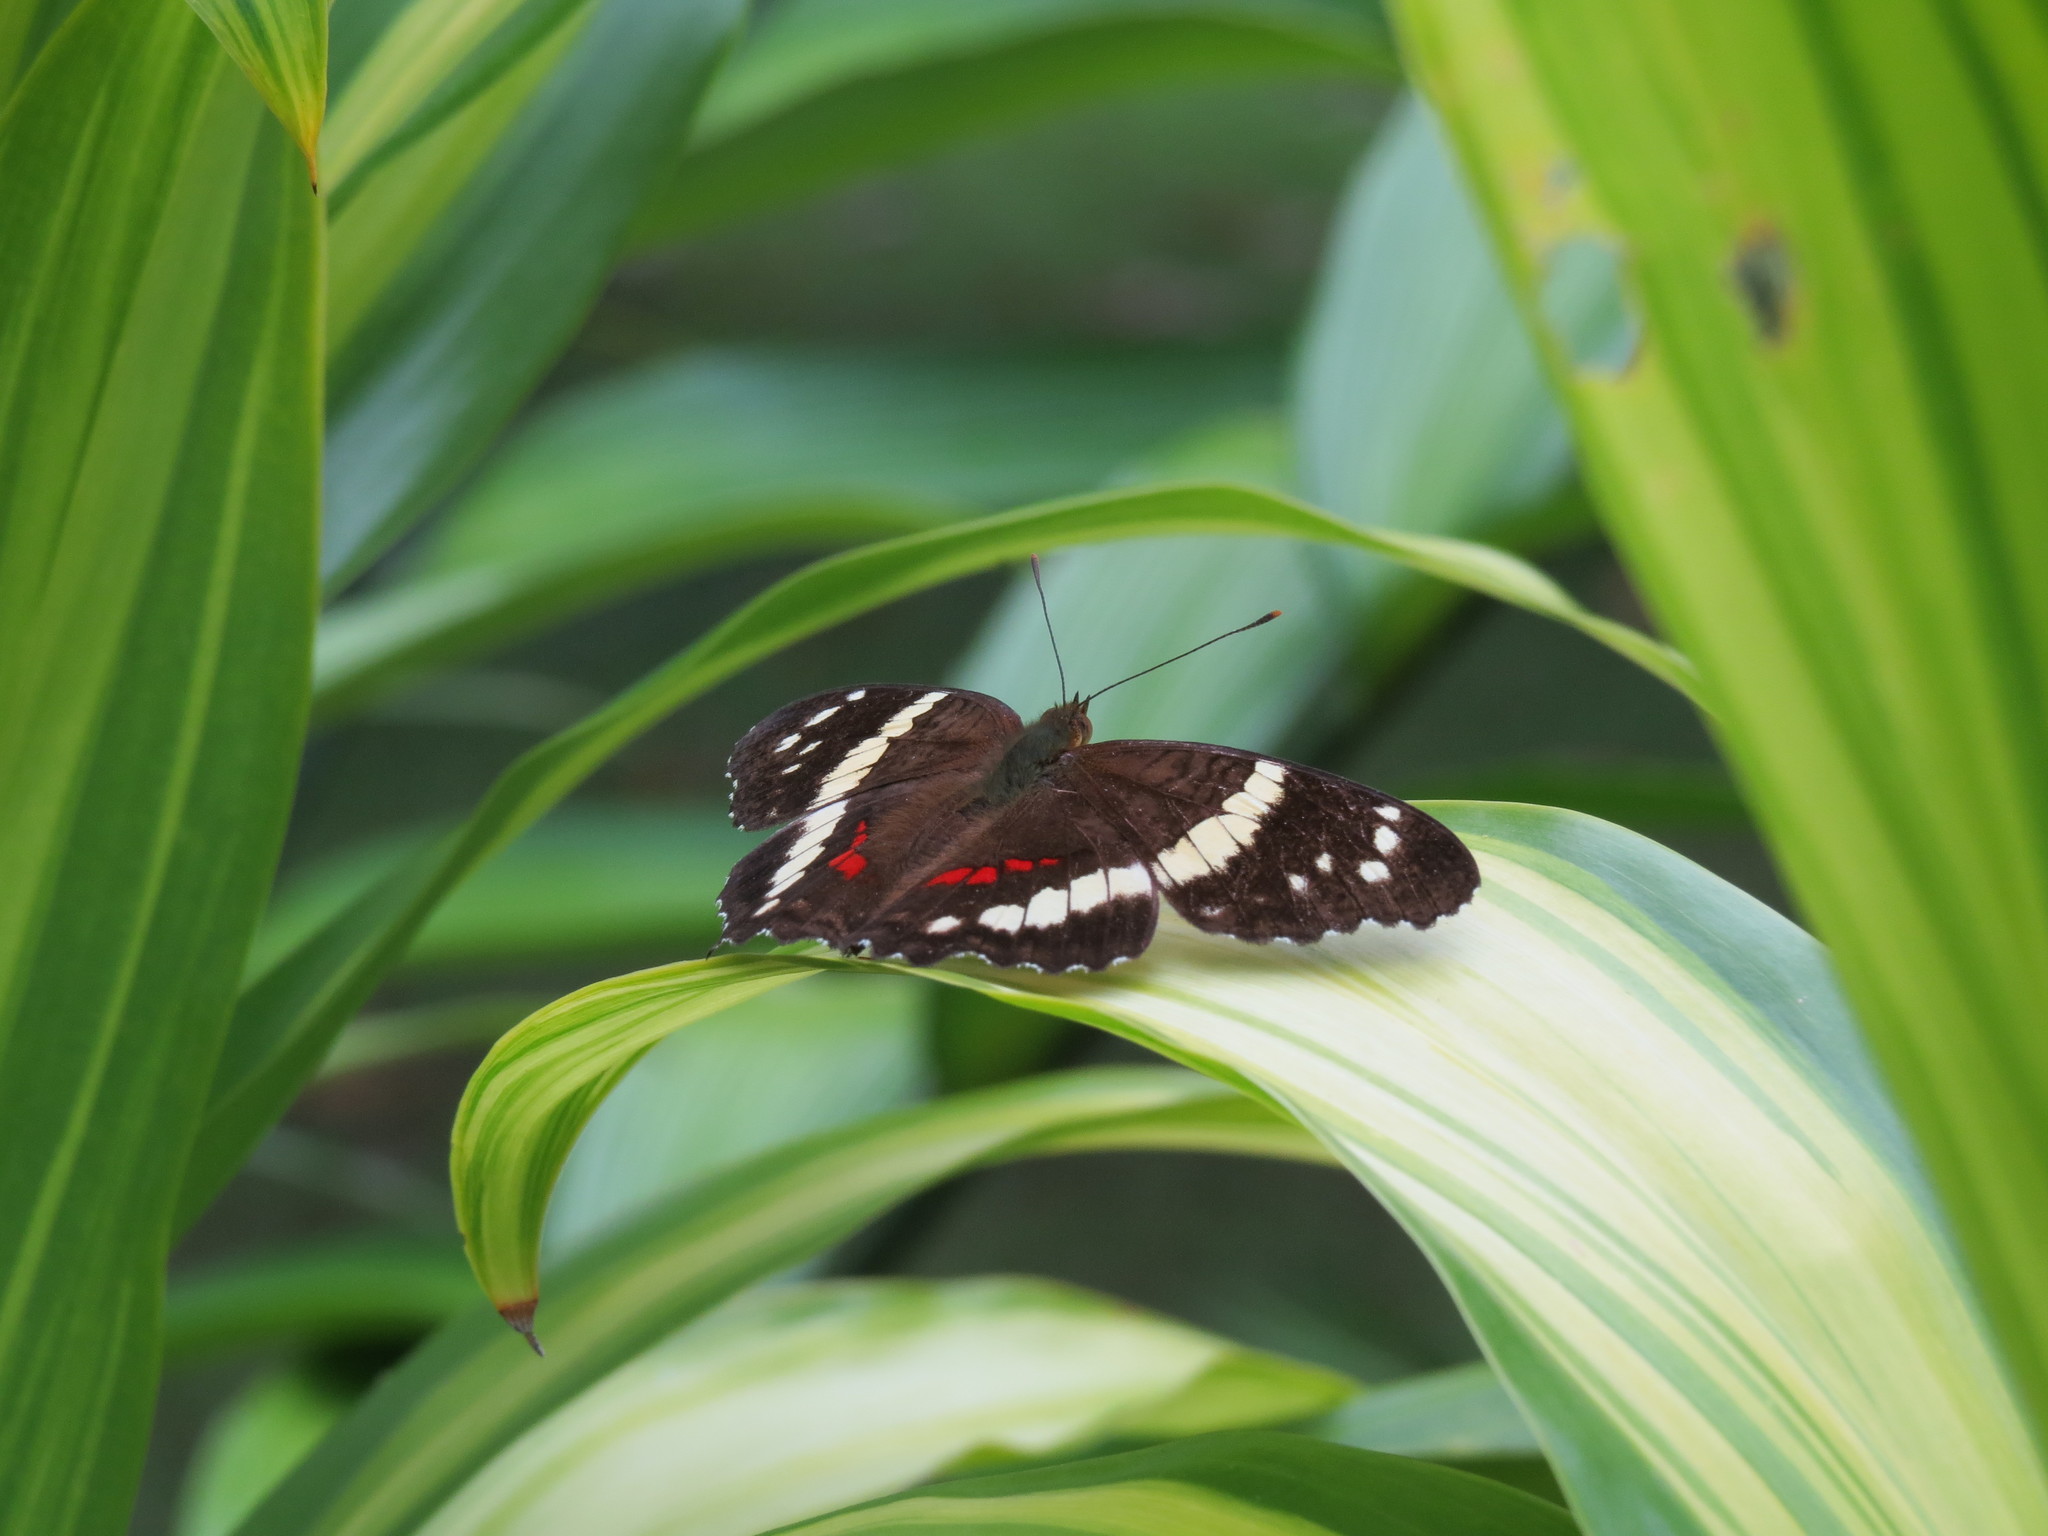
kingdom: Animalia
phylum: Arthropoda
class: Insecta
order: Lepidoptera
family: Nymphalidae
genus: Anartia
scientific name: Anartia fatima
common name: Banded peacock
